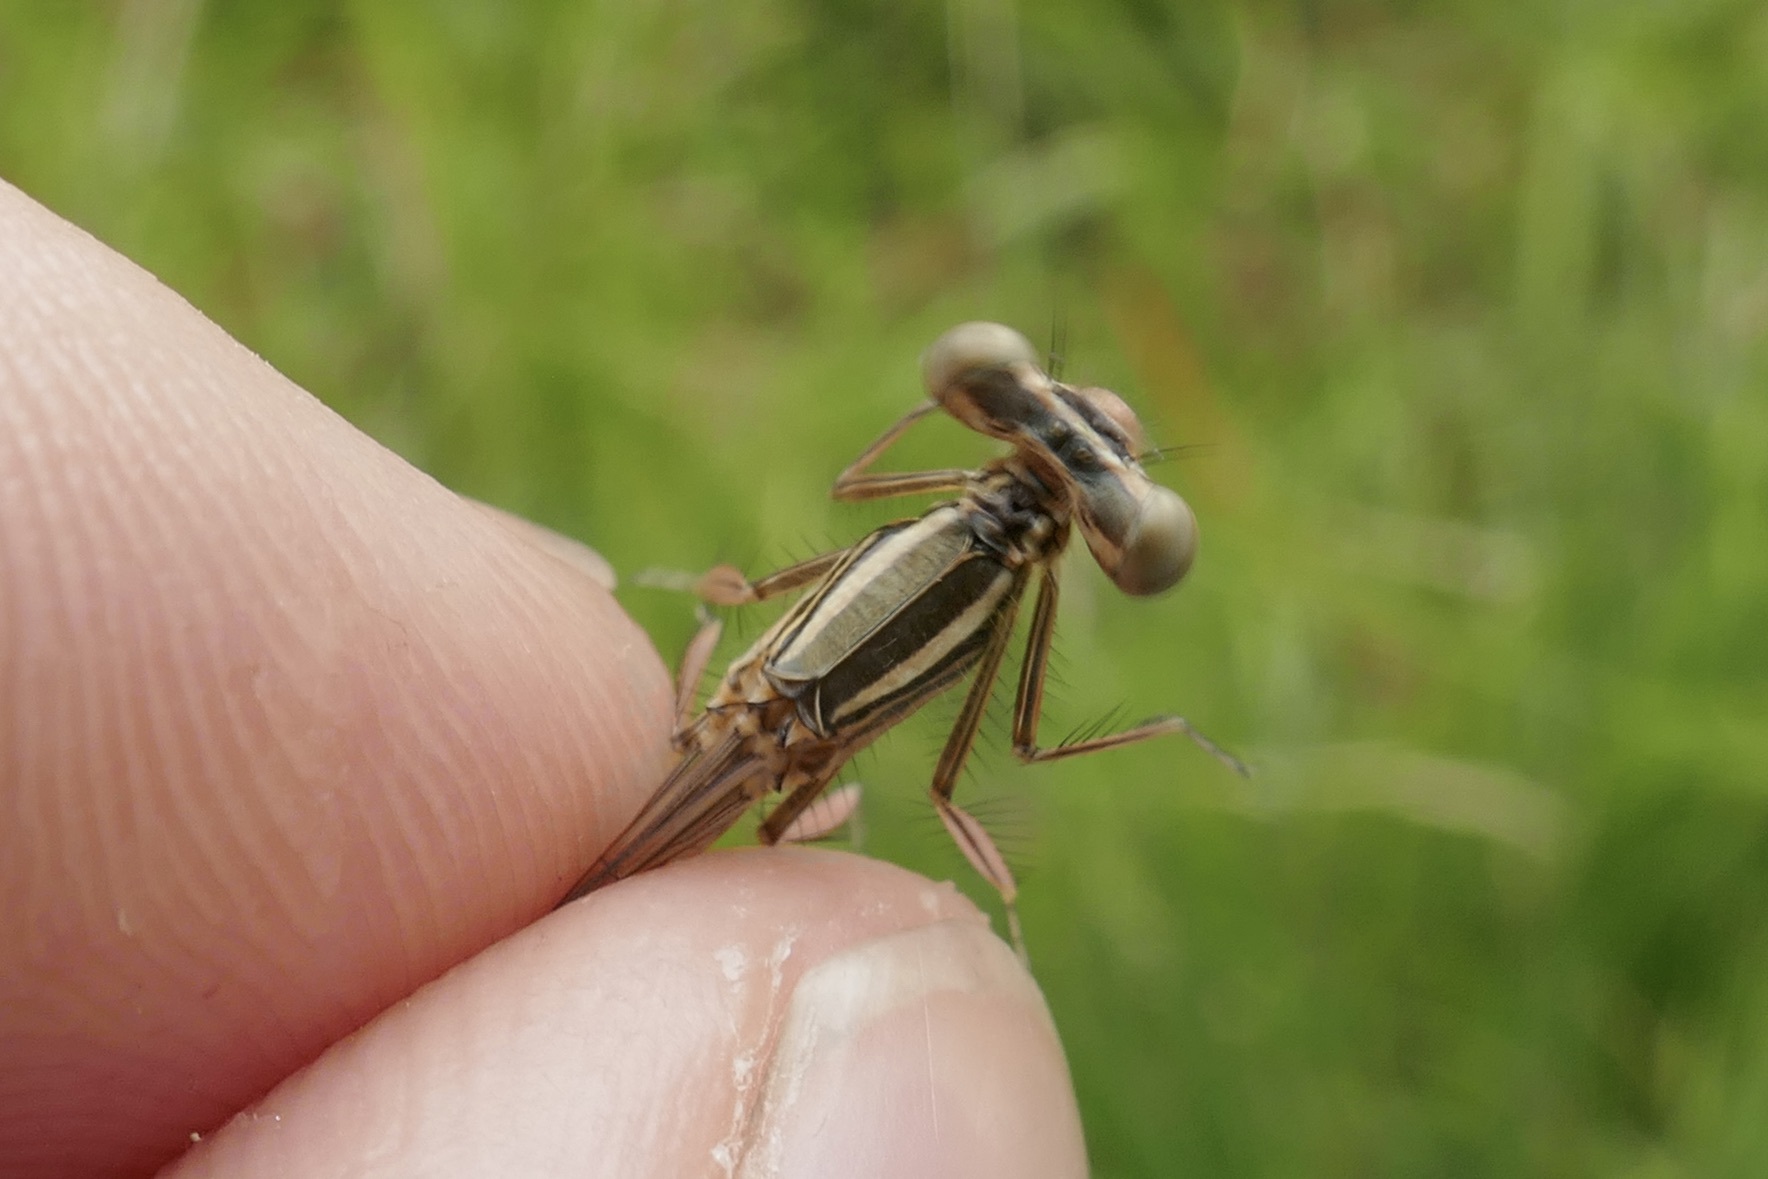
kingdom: Animalia
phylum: Arthropoda
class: Insecta
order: Odonata
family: Platycnemididae
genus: Platycnemis
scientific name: Platycnemis pennipes
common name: White-legged damselfly
